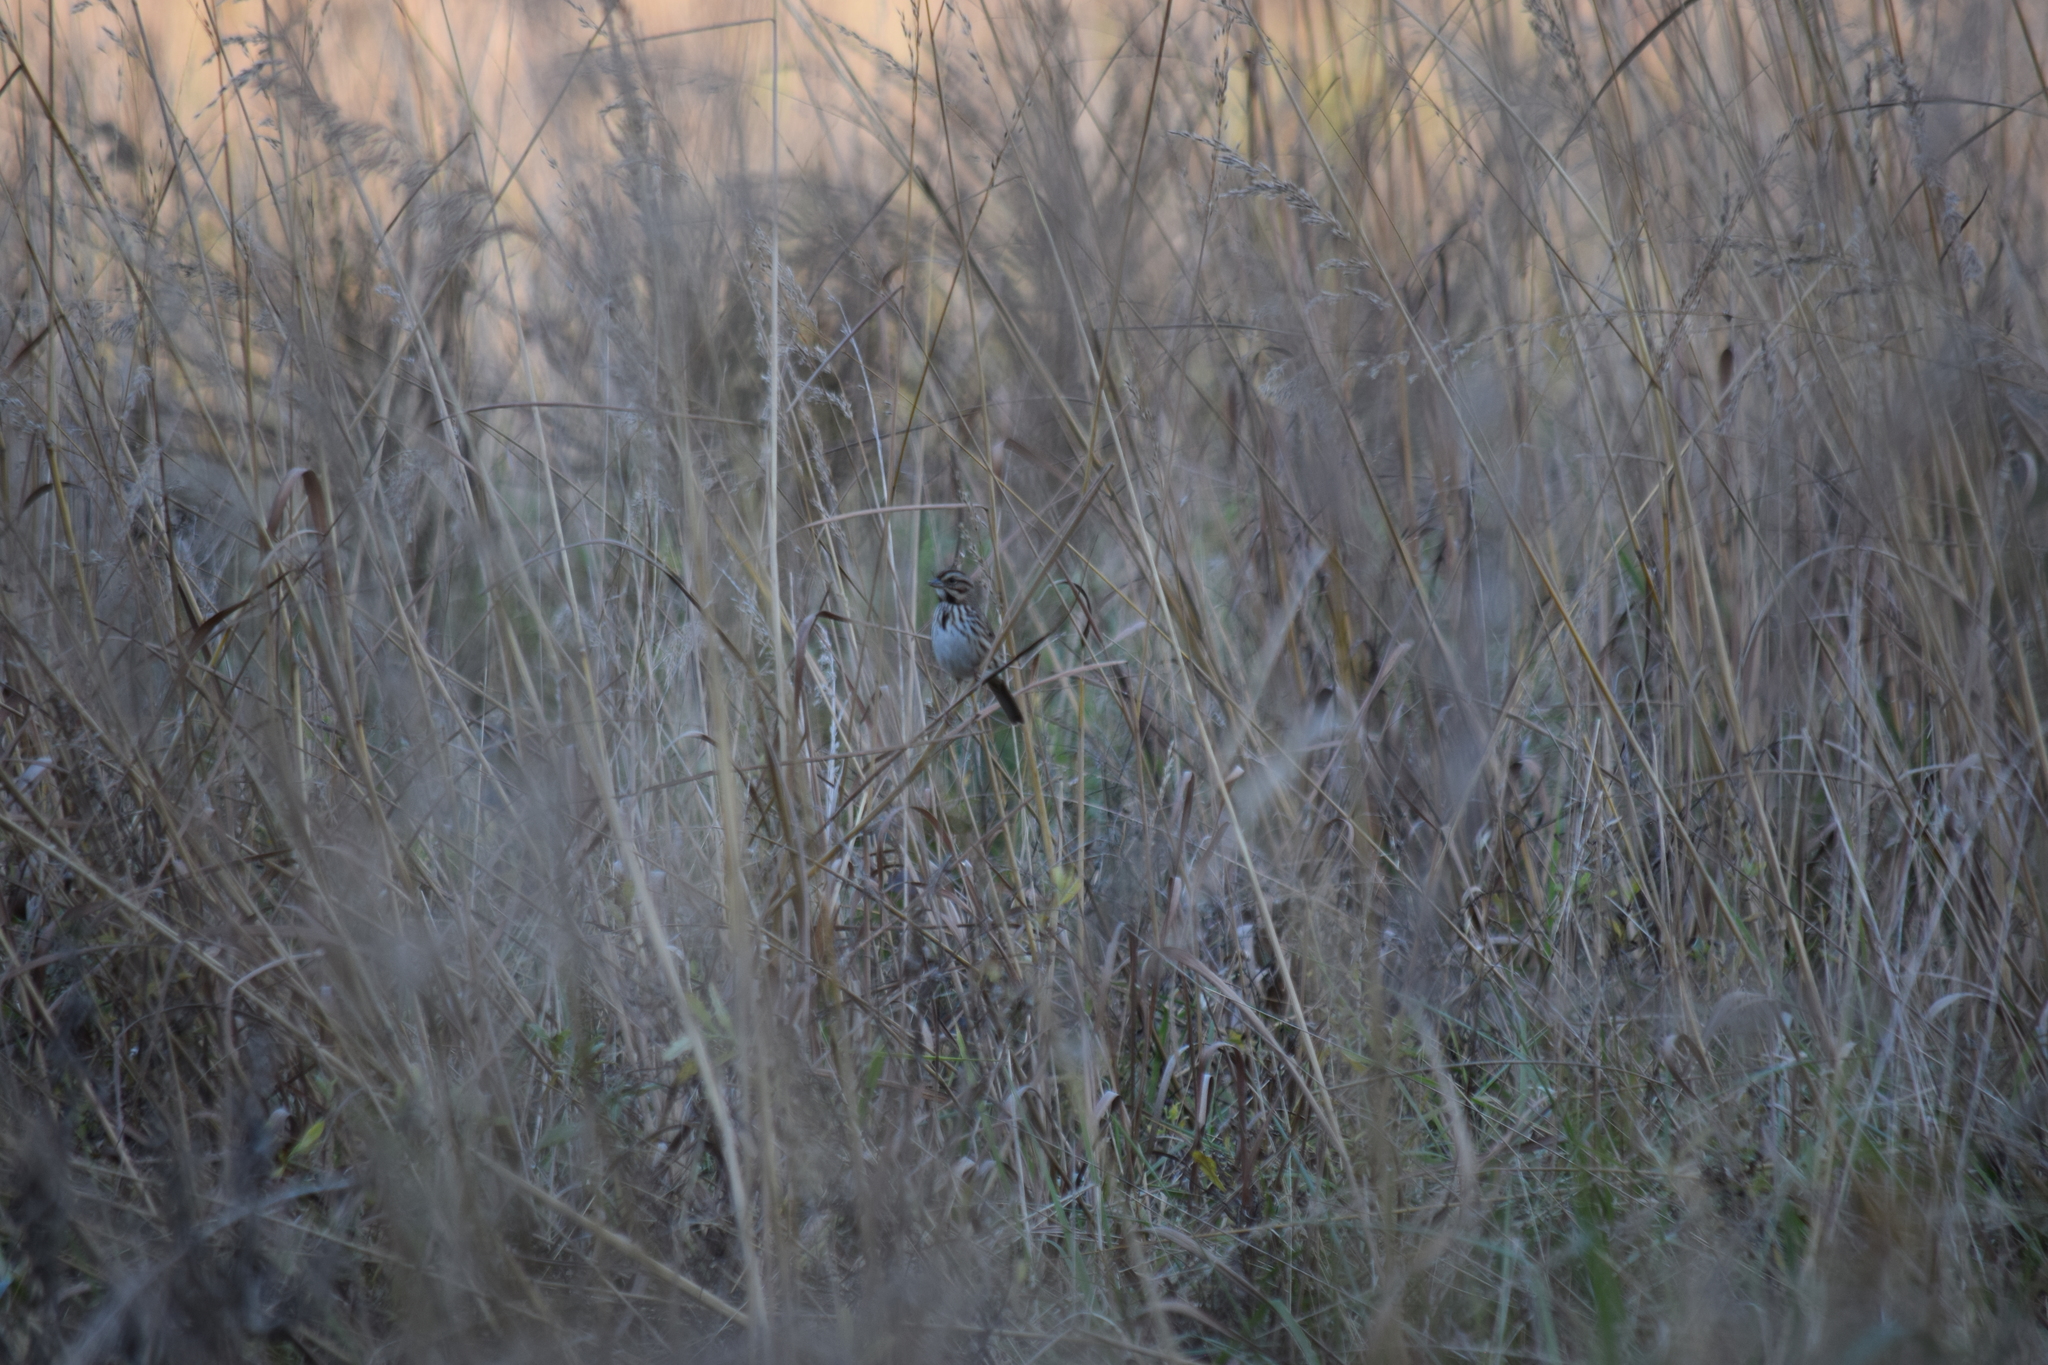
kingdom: Animalia
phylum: Chordata
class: Aves
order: Passeriformes
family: Passerellidae
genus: Melospiza
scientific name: Melospiza melodia
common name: Song sparrow
